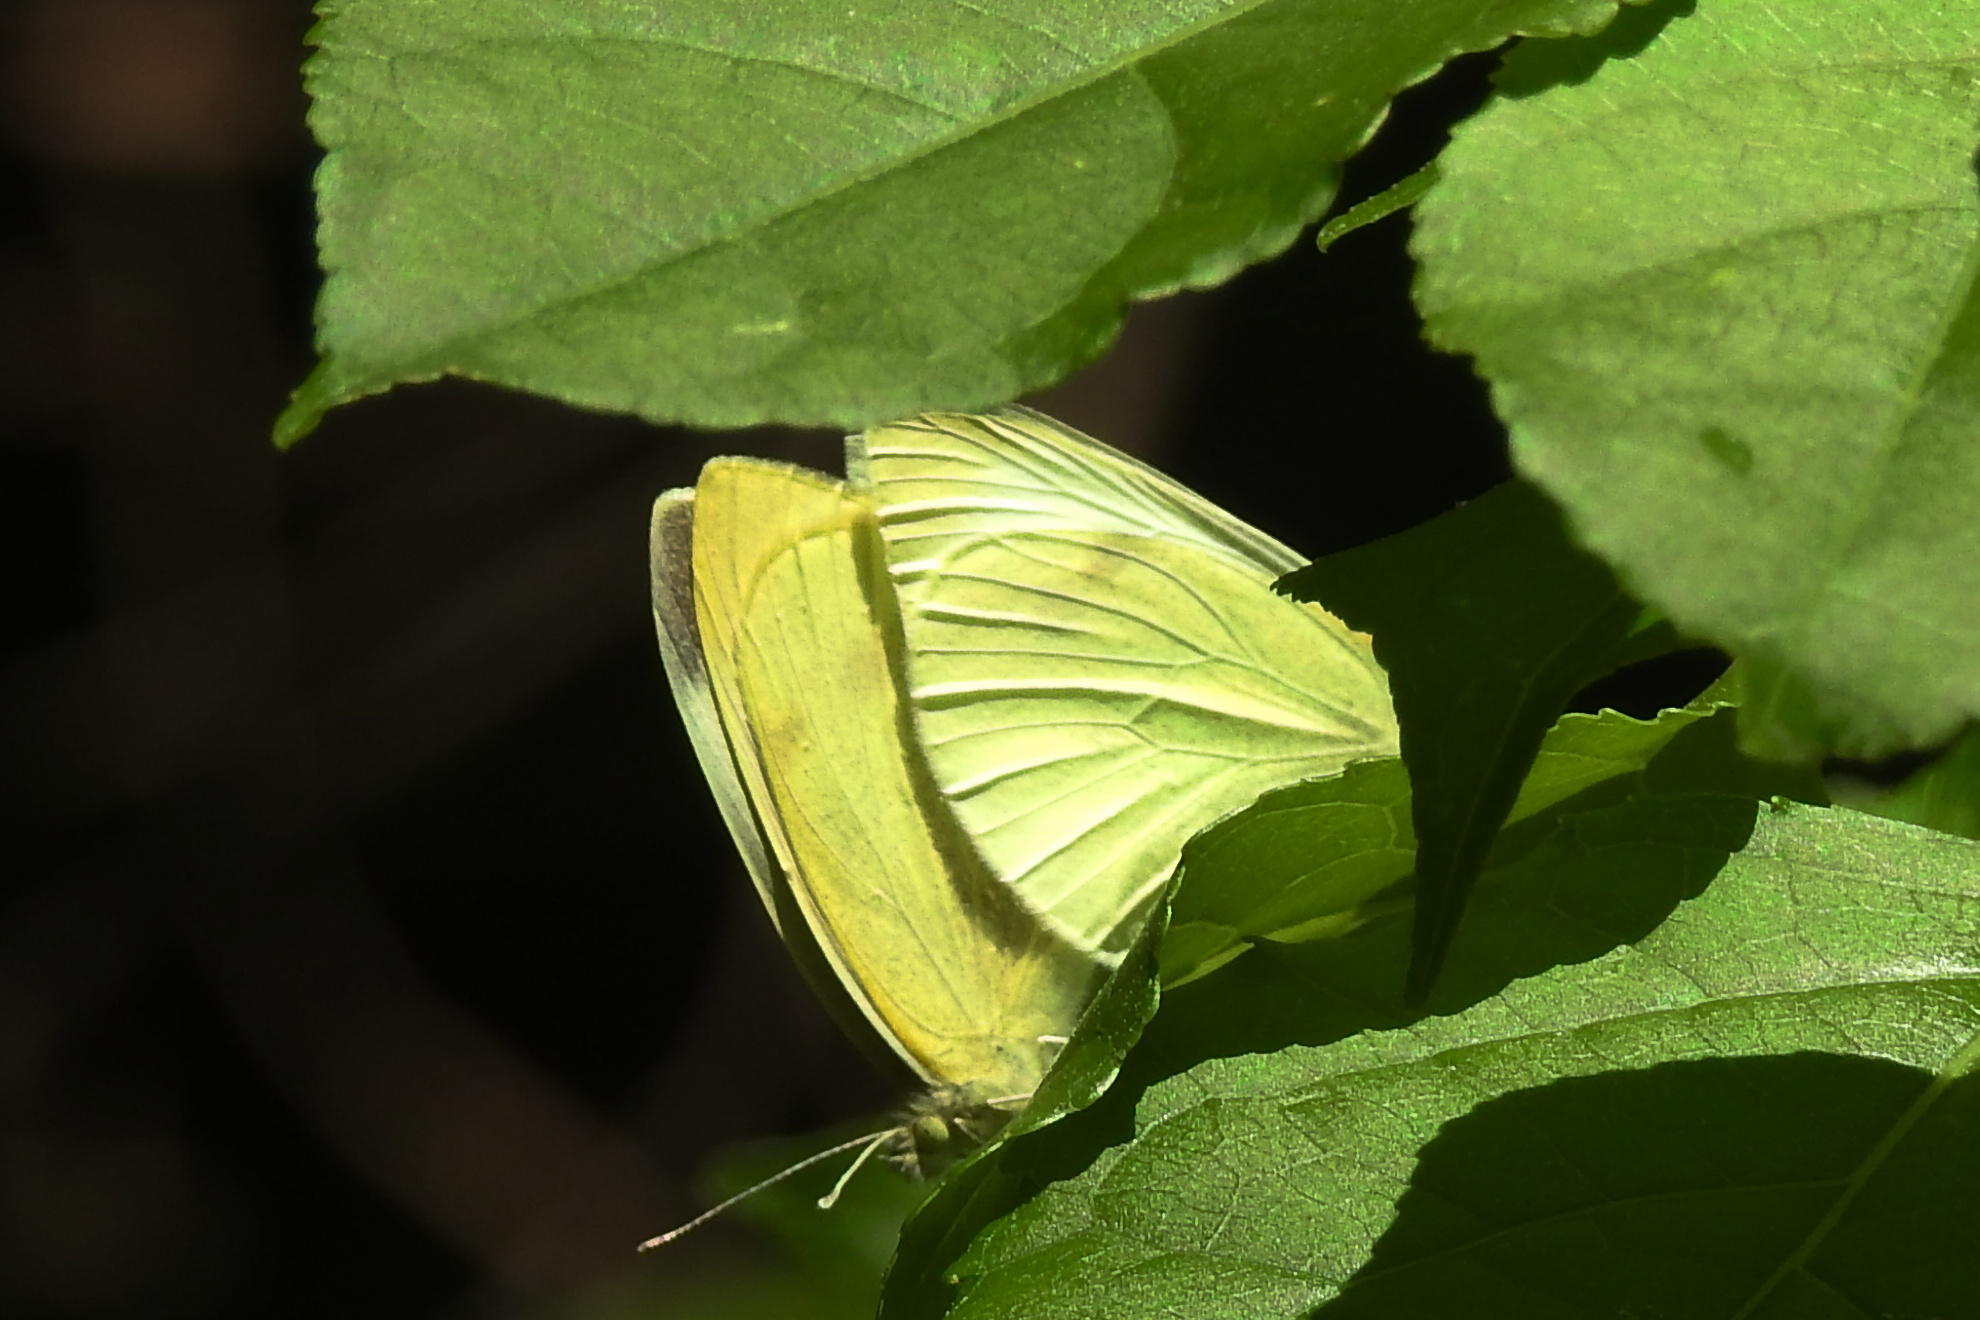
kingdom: Animalia
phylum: Arthropoda
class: Insecta
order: Lepidoptera
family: Pieridae
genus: Pieris
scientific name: Pieris rapae
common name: Small white
